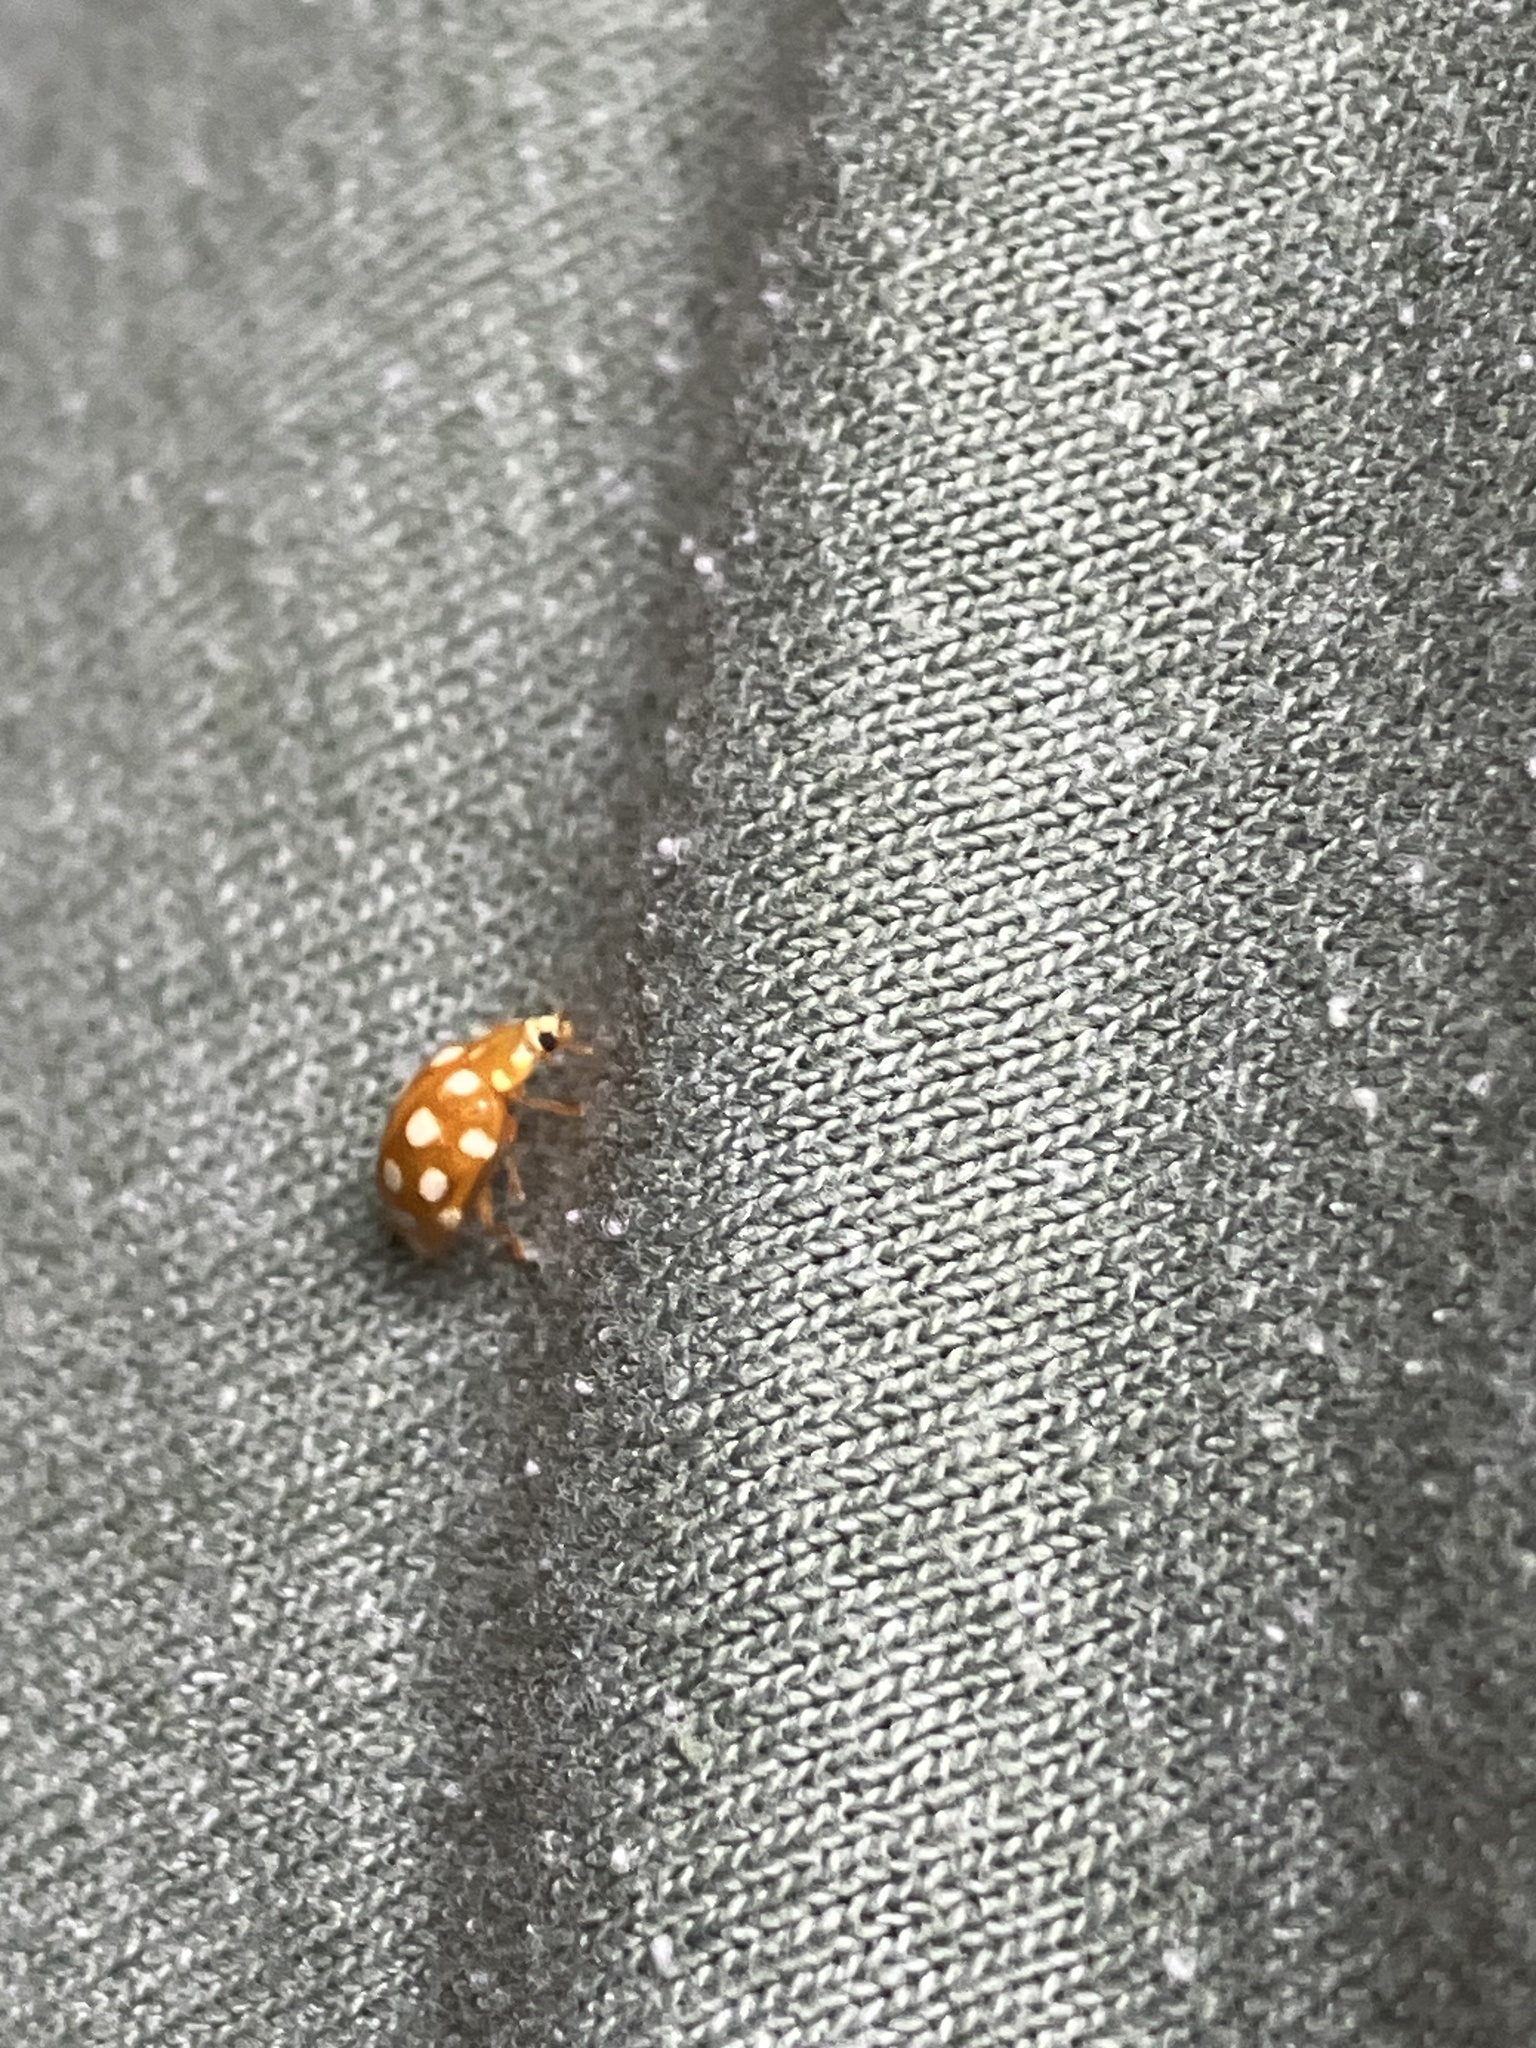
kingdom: Animalia
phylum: Arthropoda
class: Insecta
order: Coleoptera
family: Coccinellidae
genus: Halyzia
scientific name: Halyzia sedecimguttata
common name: Orange ladybird
